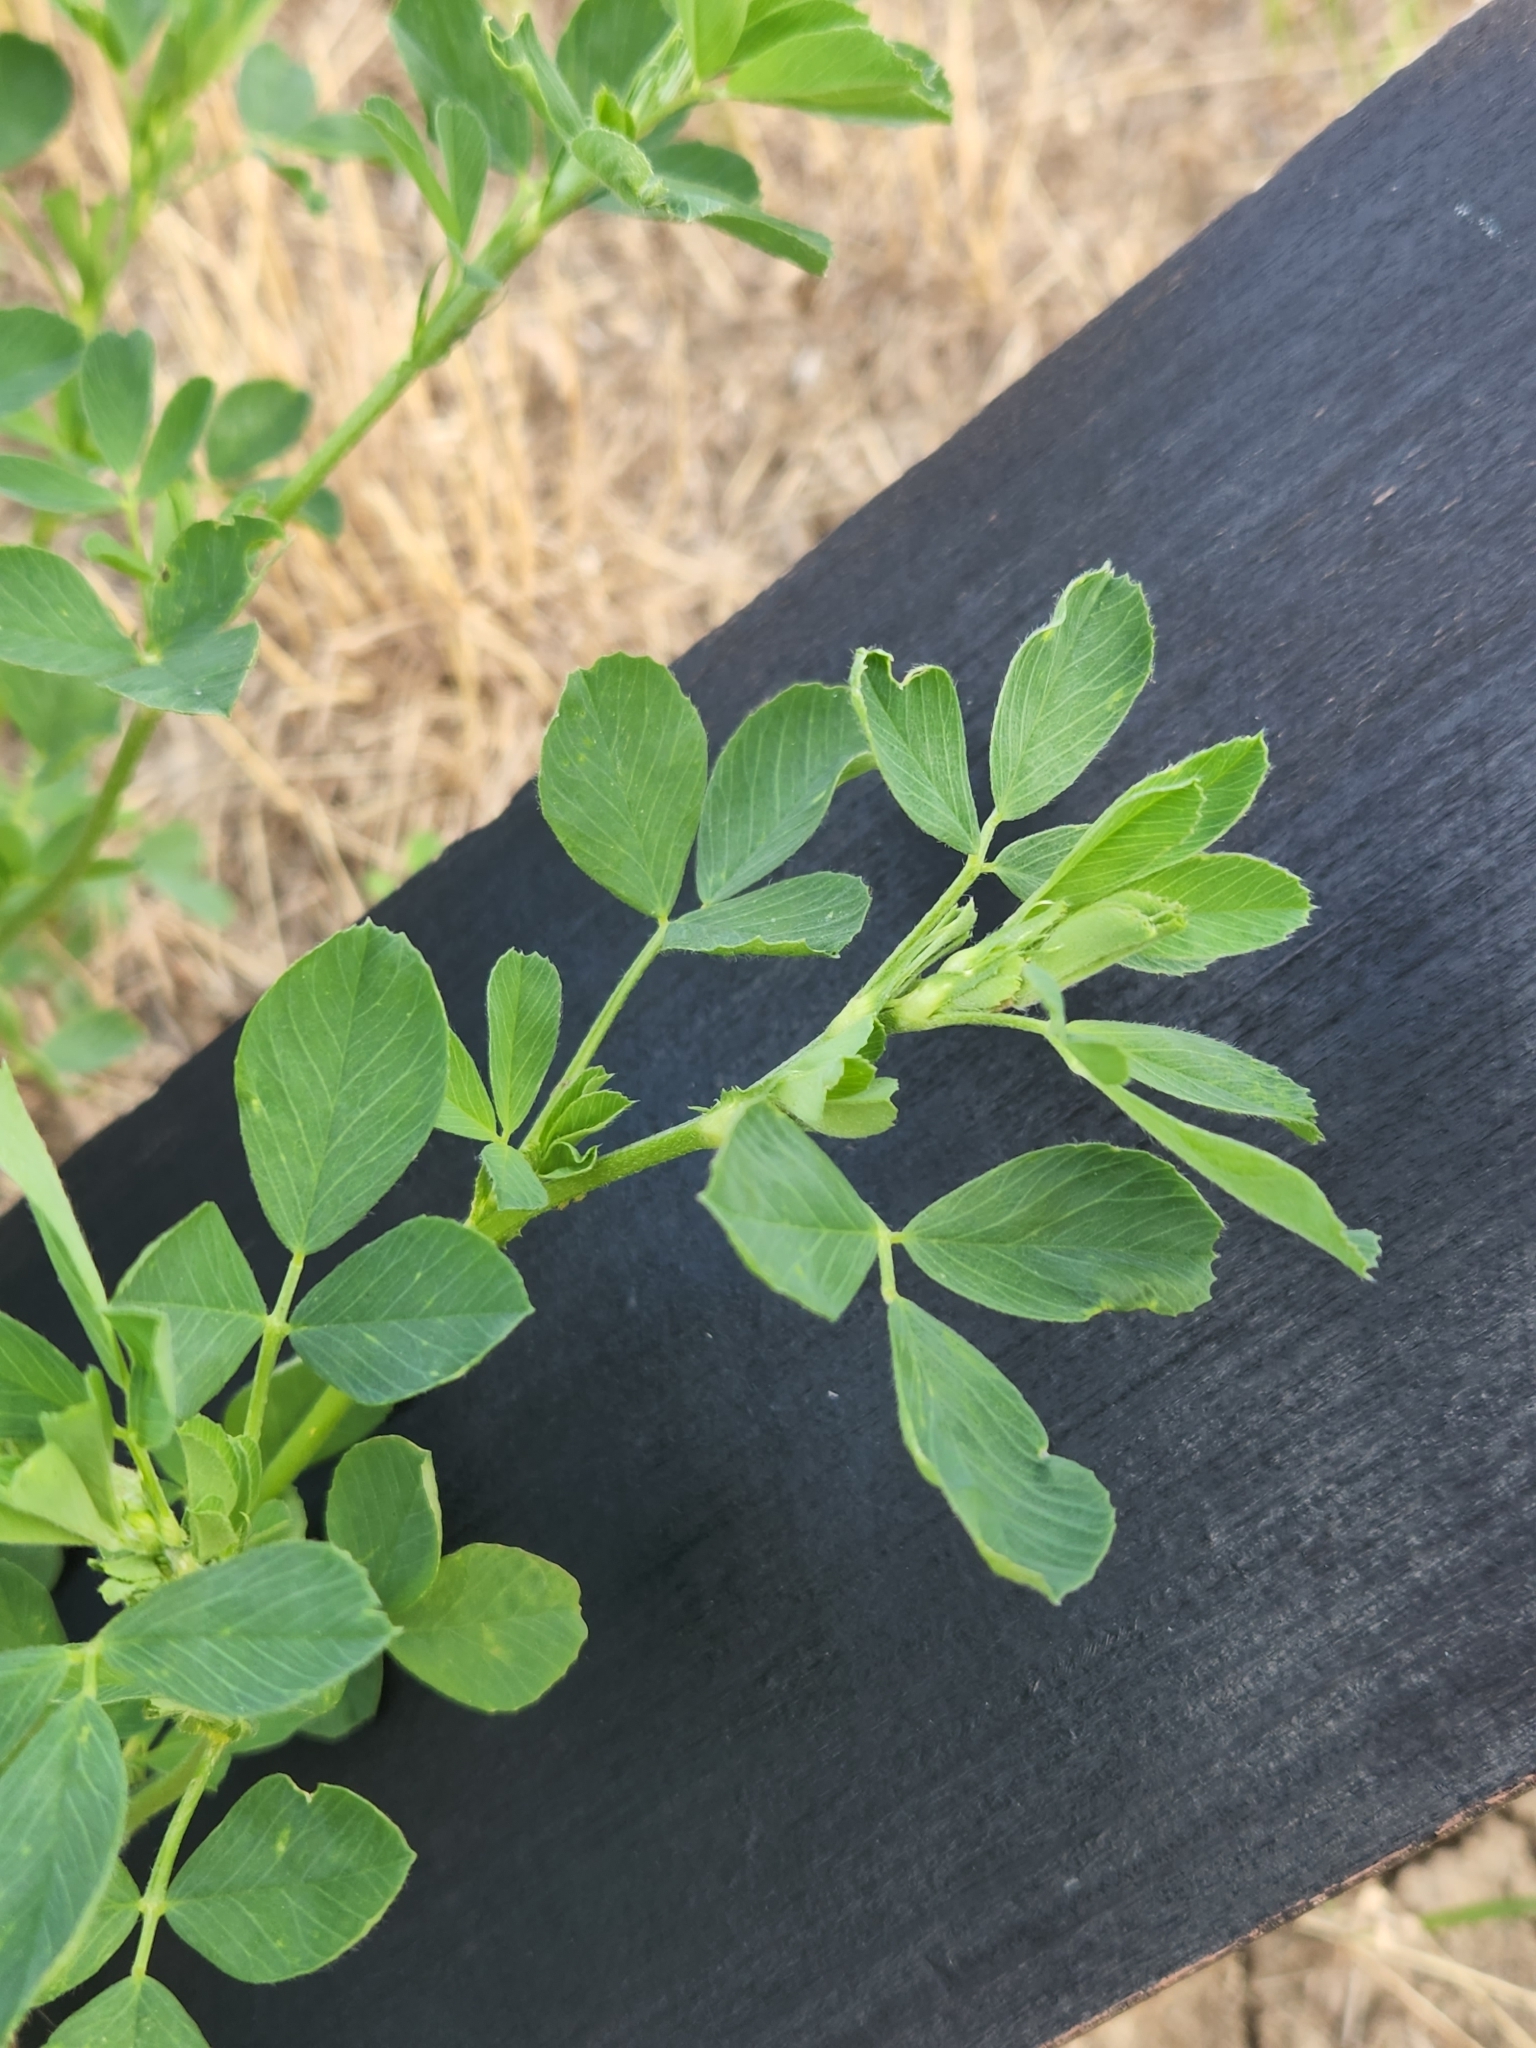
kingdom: Plantae
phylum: Tracheophyta
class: Magnoliopsida
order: Fabales
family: Fabaceae
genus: Medicago
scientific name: Medicago sativa
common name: Alfalfa
